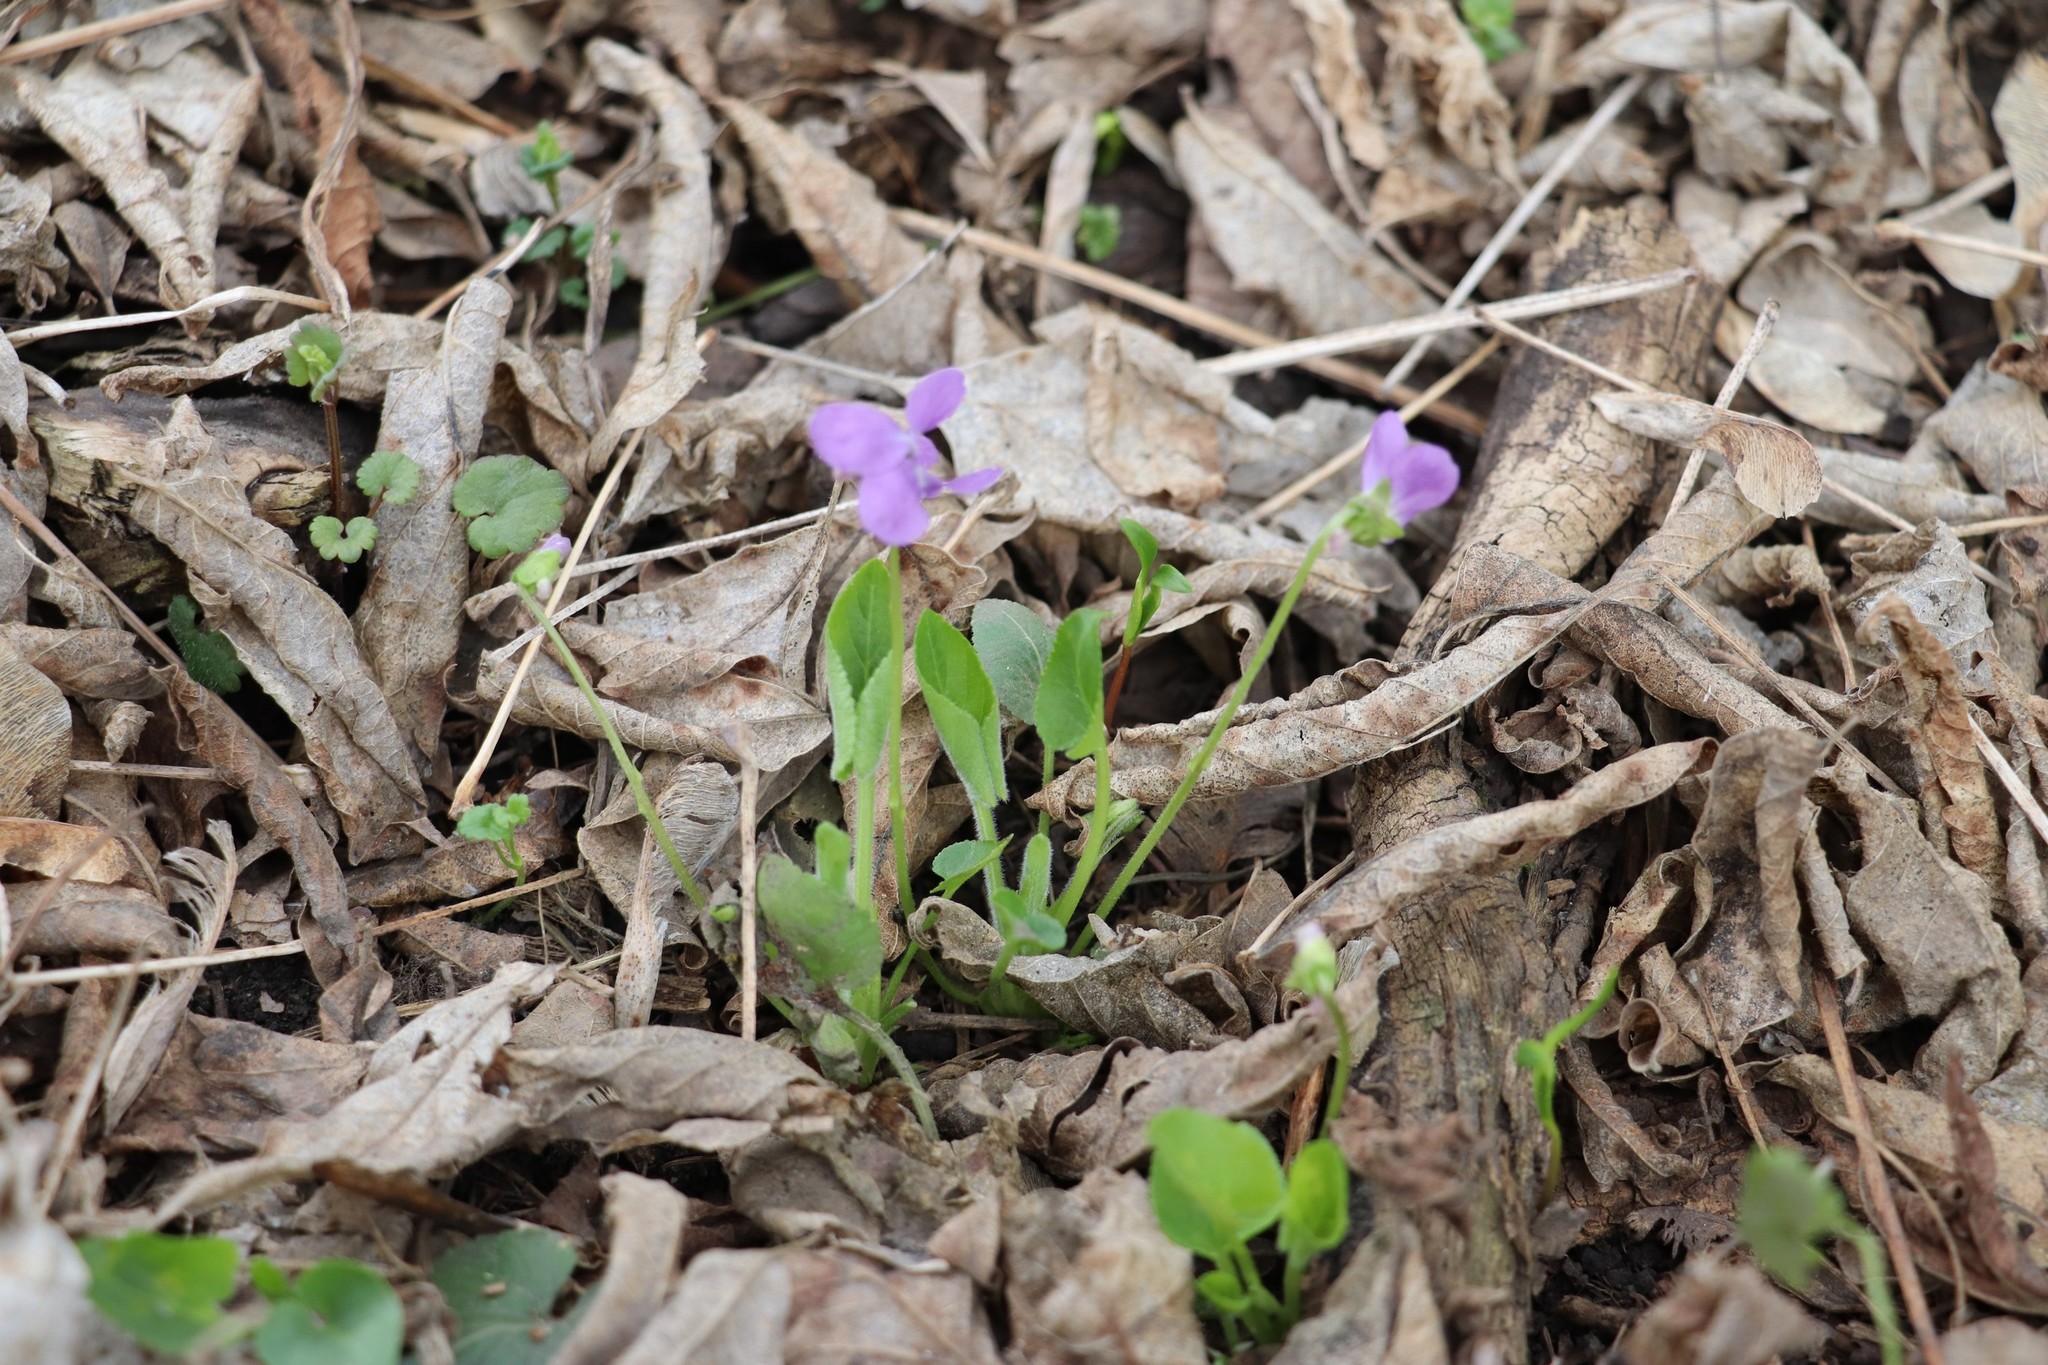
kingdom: Plantae
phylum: Tracheophyta
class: Magnoliopsida
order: Malpighiales
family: Violaceae
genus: Viola
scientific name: Viola hirta
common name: Hairy violet
